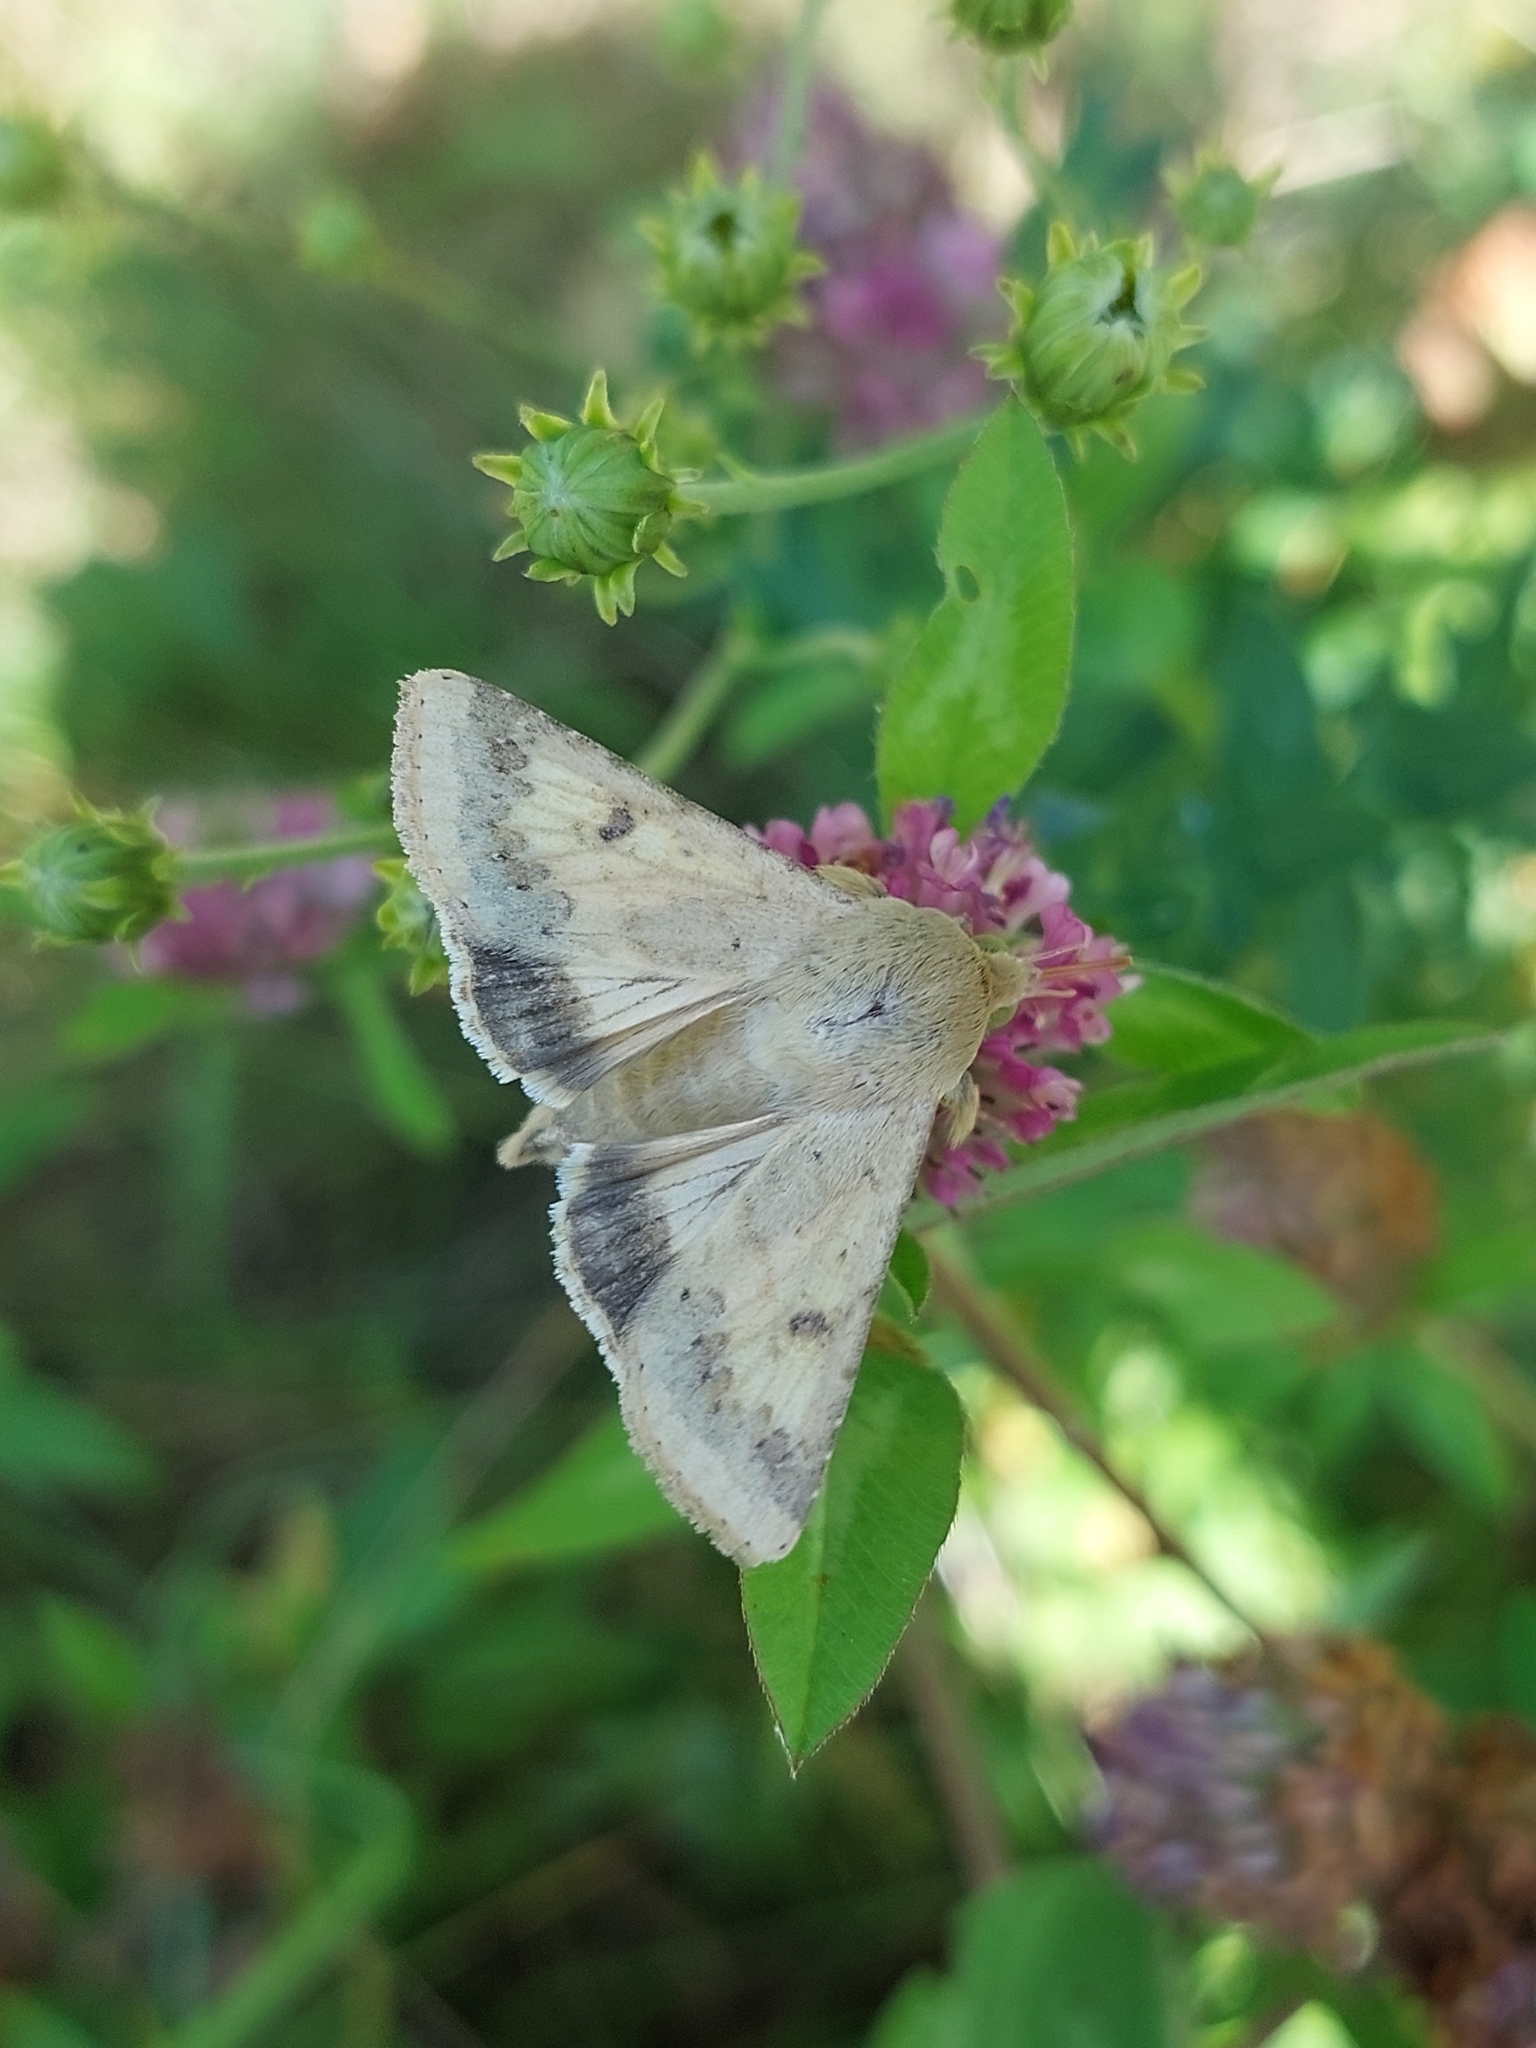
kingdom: Animalia
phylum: Arthropoda
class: Insecta
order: Lepidoptera
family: Noctuidae
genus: Helicoverpa
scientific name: Helicoverpa armigera
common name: Cotton bollworm
